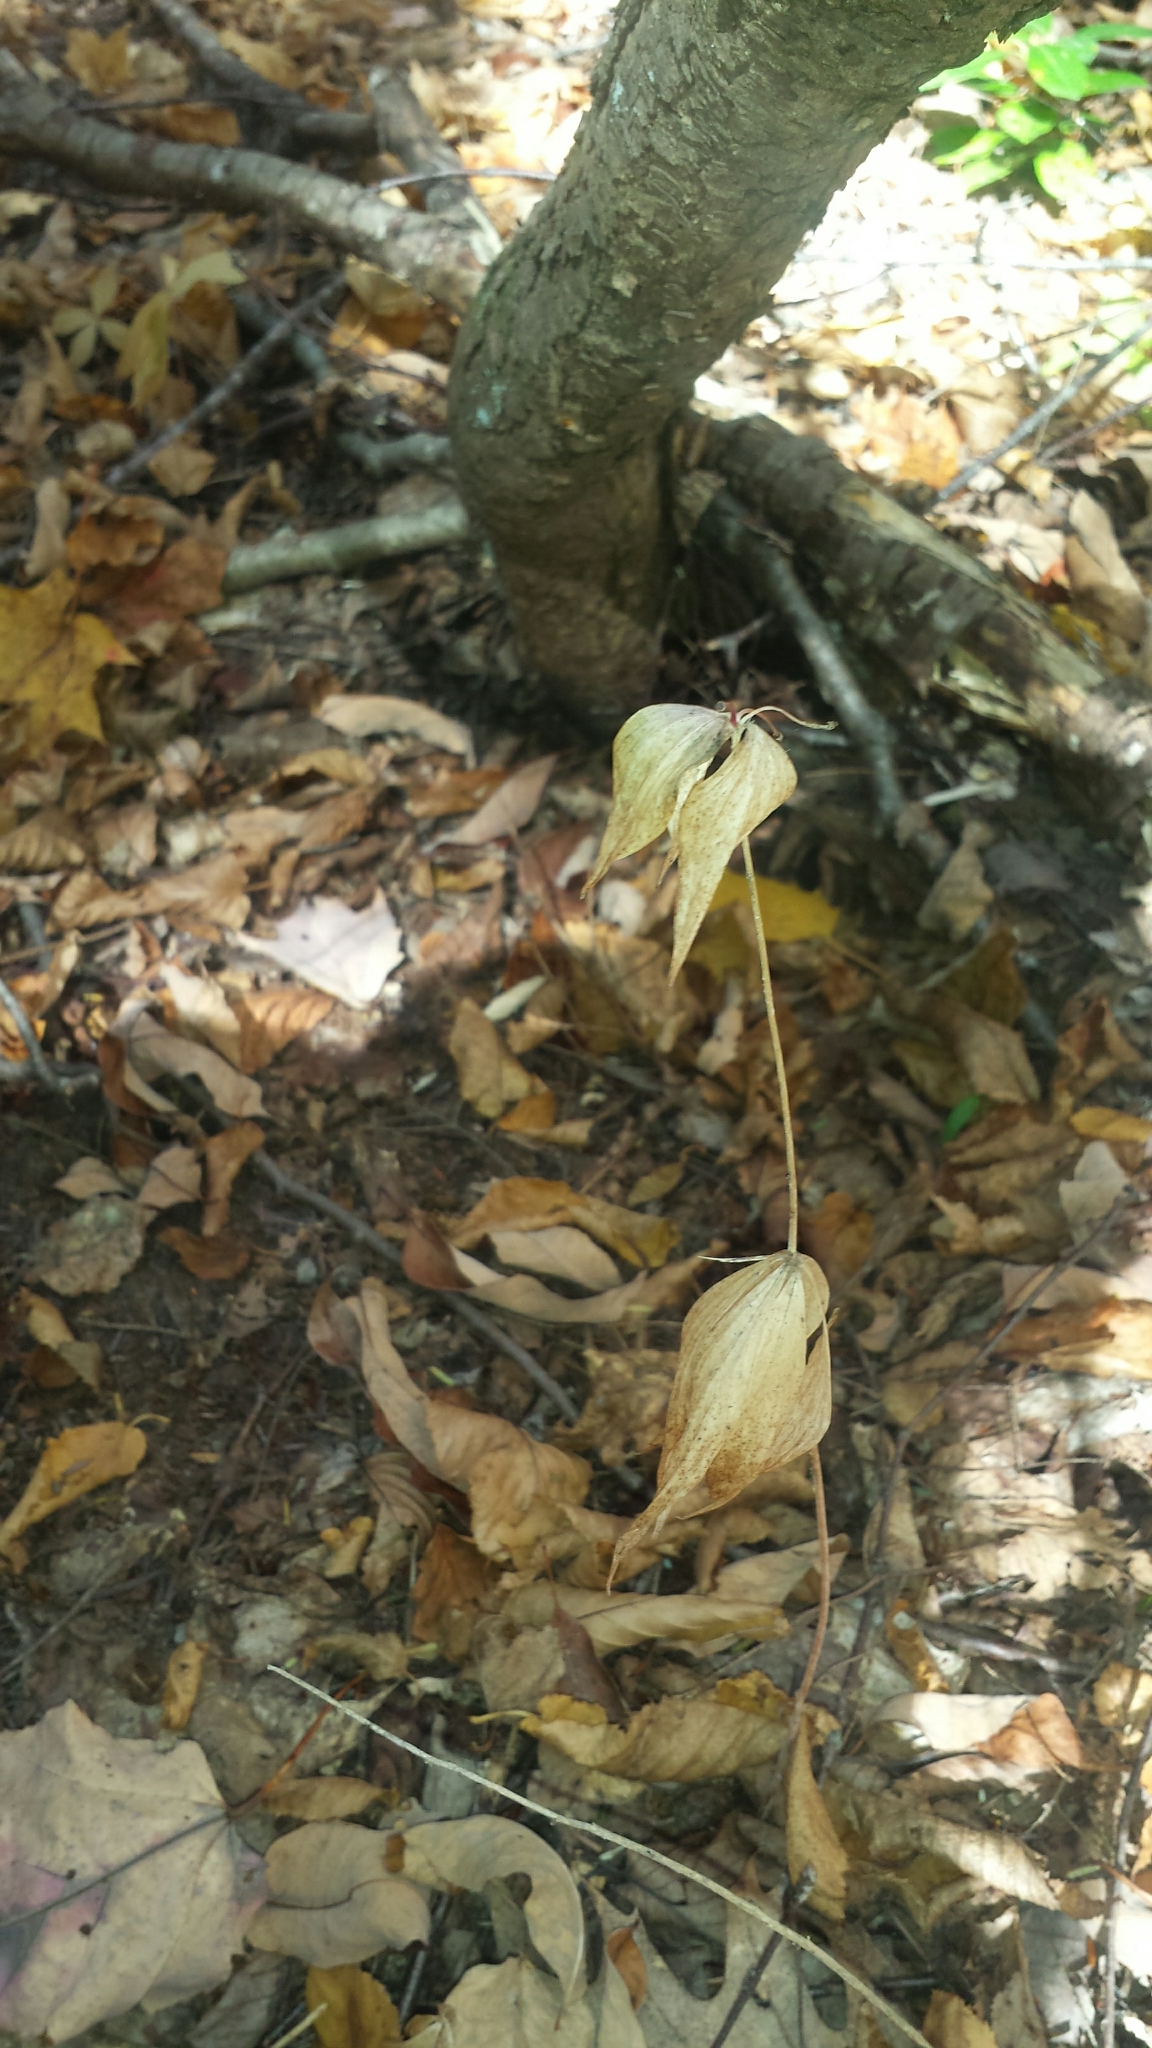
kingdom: Plantae
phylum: Tracheophyta
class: Liliopsida
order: Liliales
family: Liliaceae
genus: Medeola
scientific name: Medeola virginiana
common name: Indian cucumber-root
